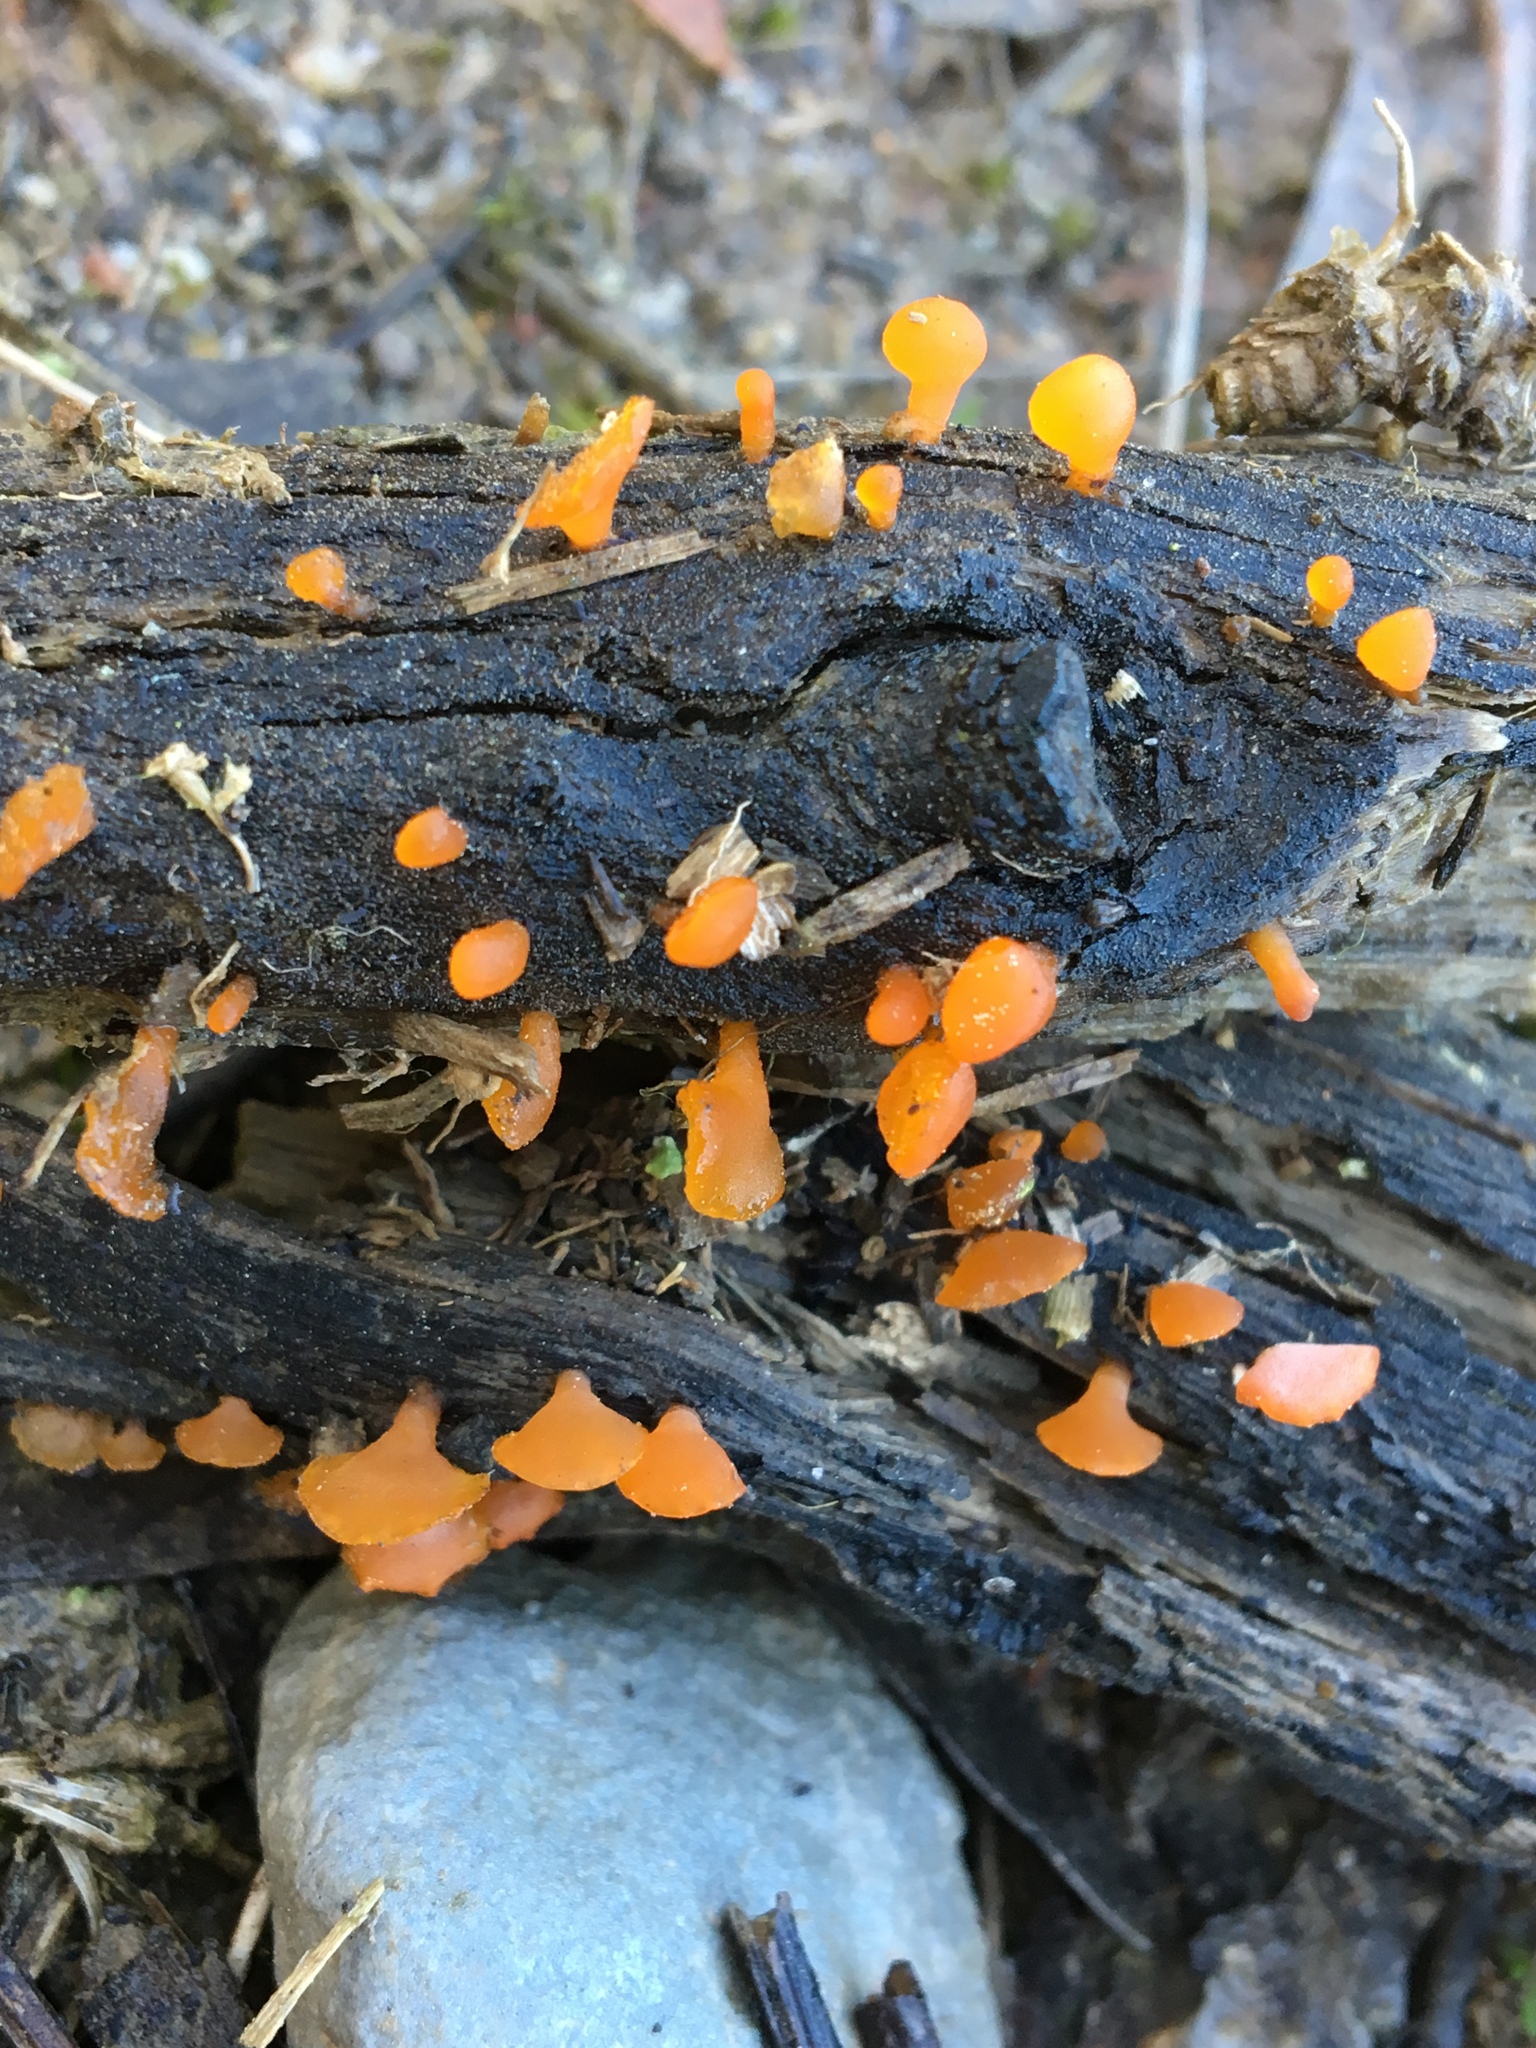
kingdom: Fungi
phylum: Basidiomycota
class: Dacrymycetes
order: Dacrymycetales
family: Dacrymycetaceae
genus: Heterotextus
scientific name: Heterotextus peziziformis
